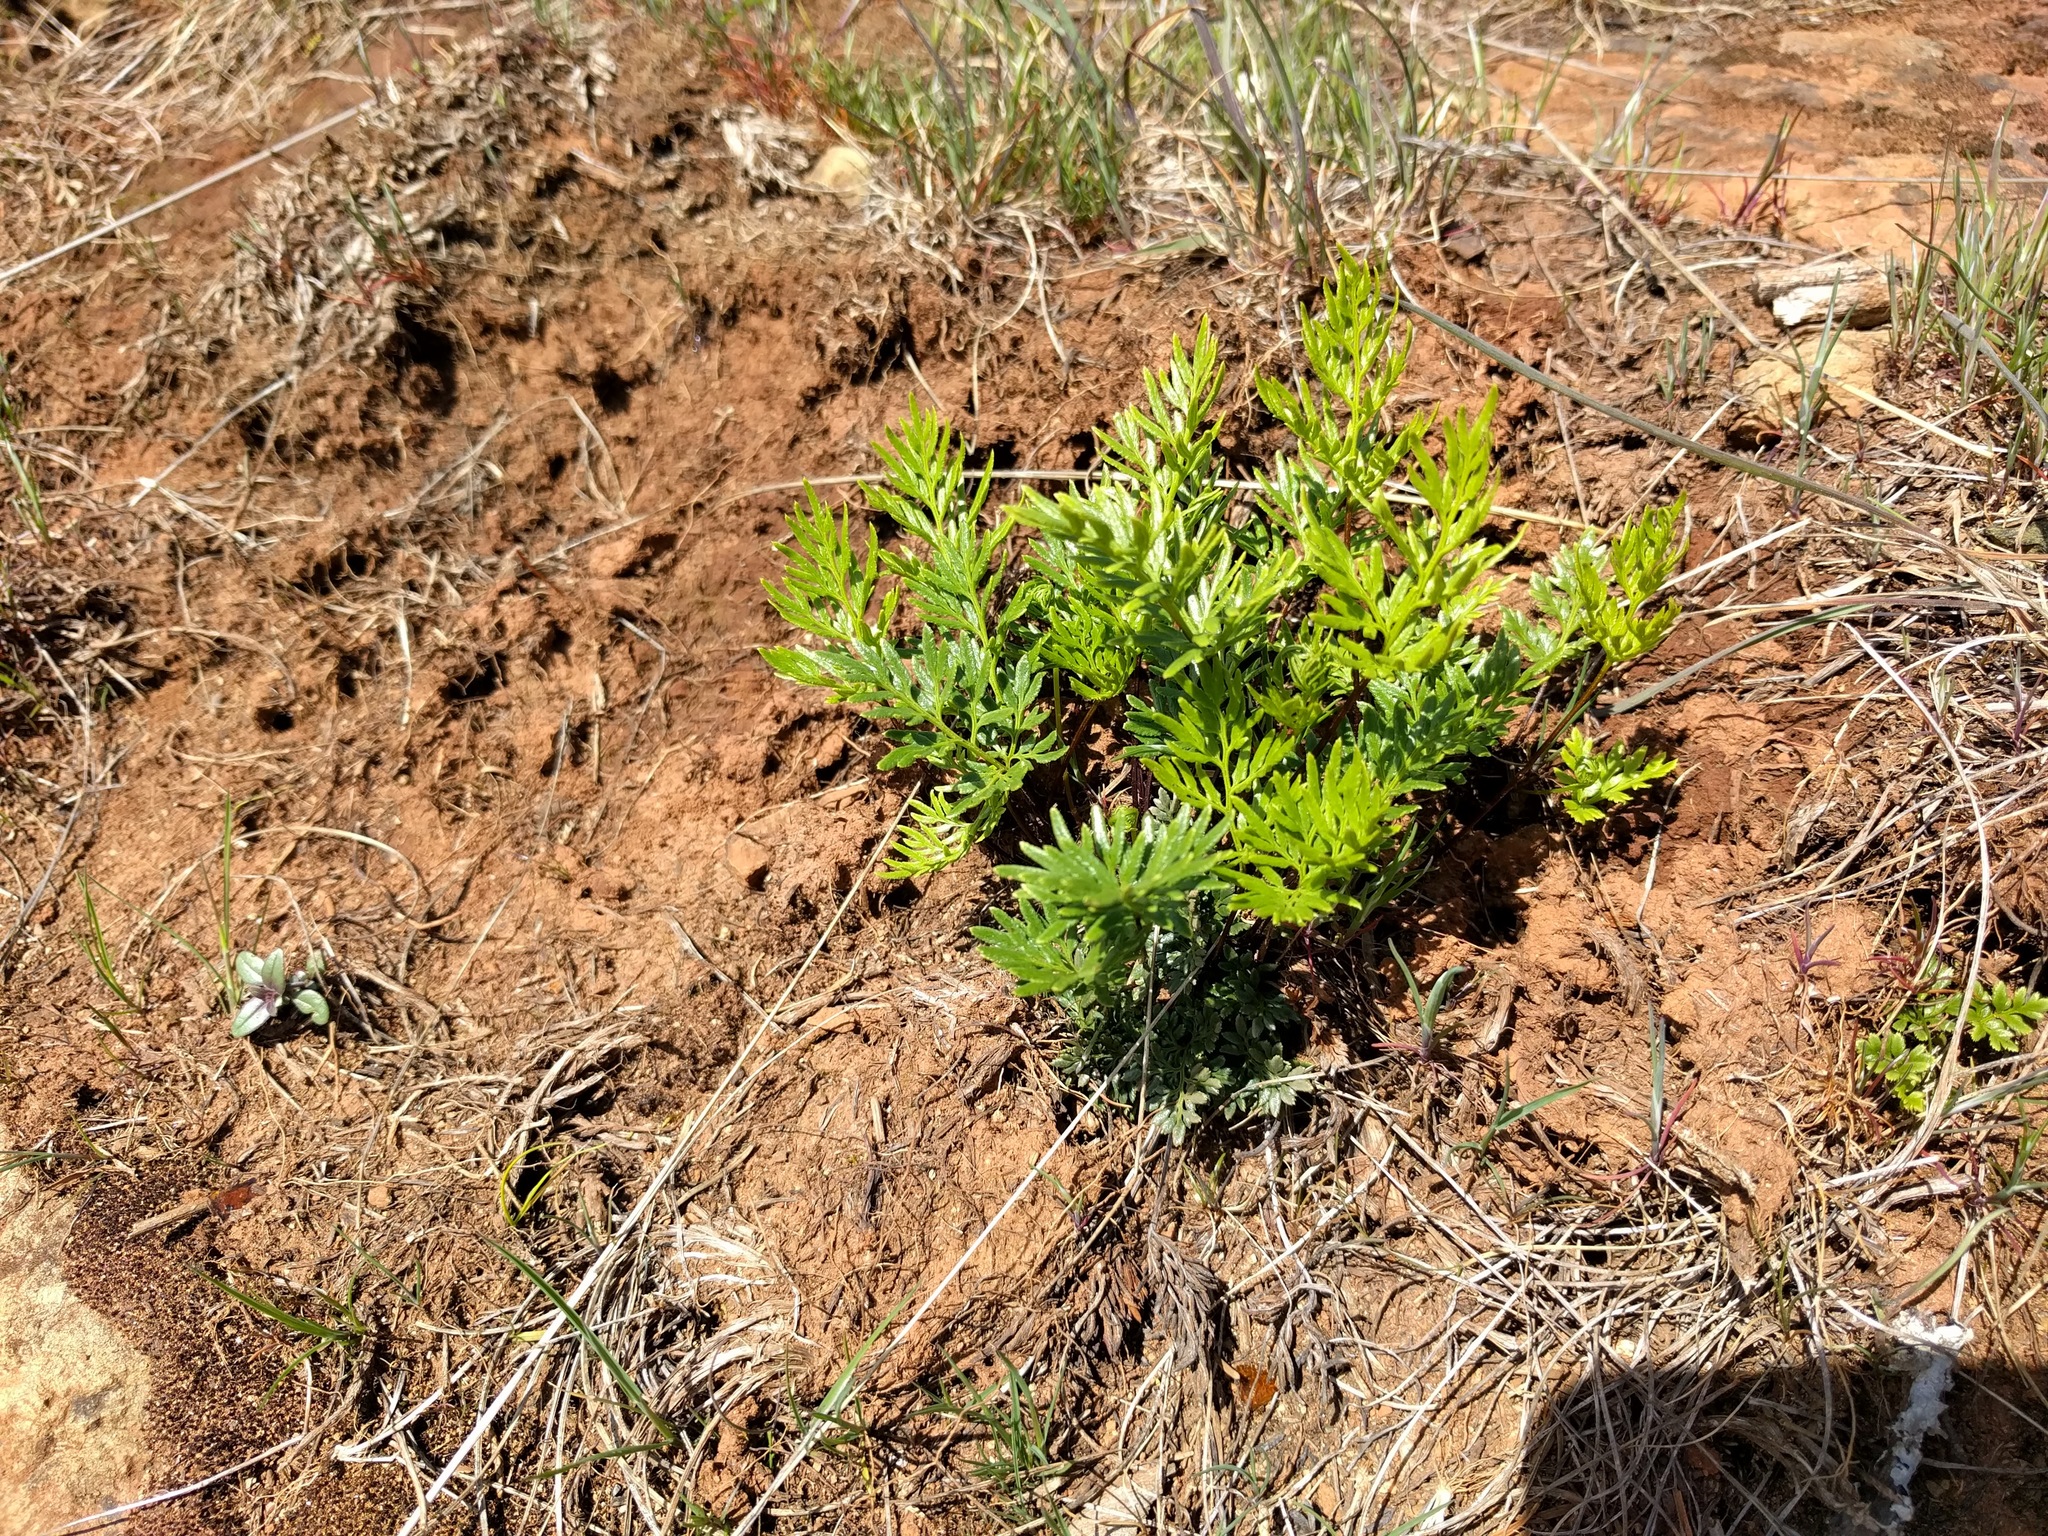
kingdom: Plantae
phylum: Tracheophyta
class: Polypodiopsida
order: Polypodiales
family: Pteridaceae
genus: Aspidotis
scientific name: Aspidotis densa
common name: Indian's dream
